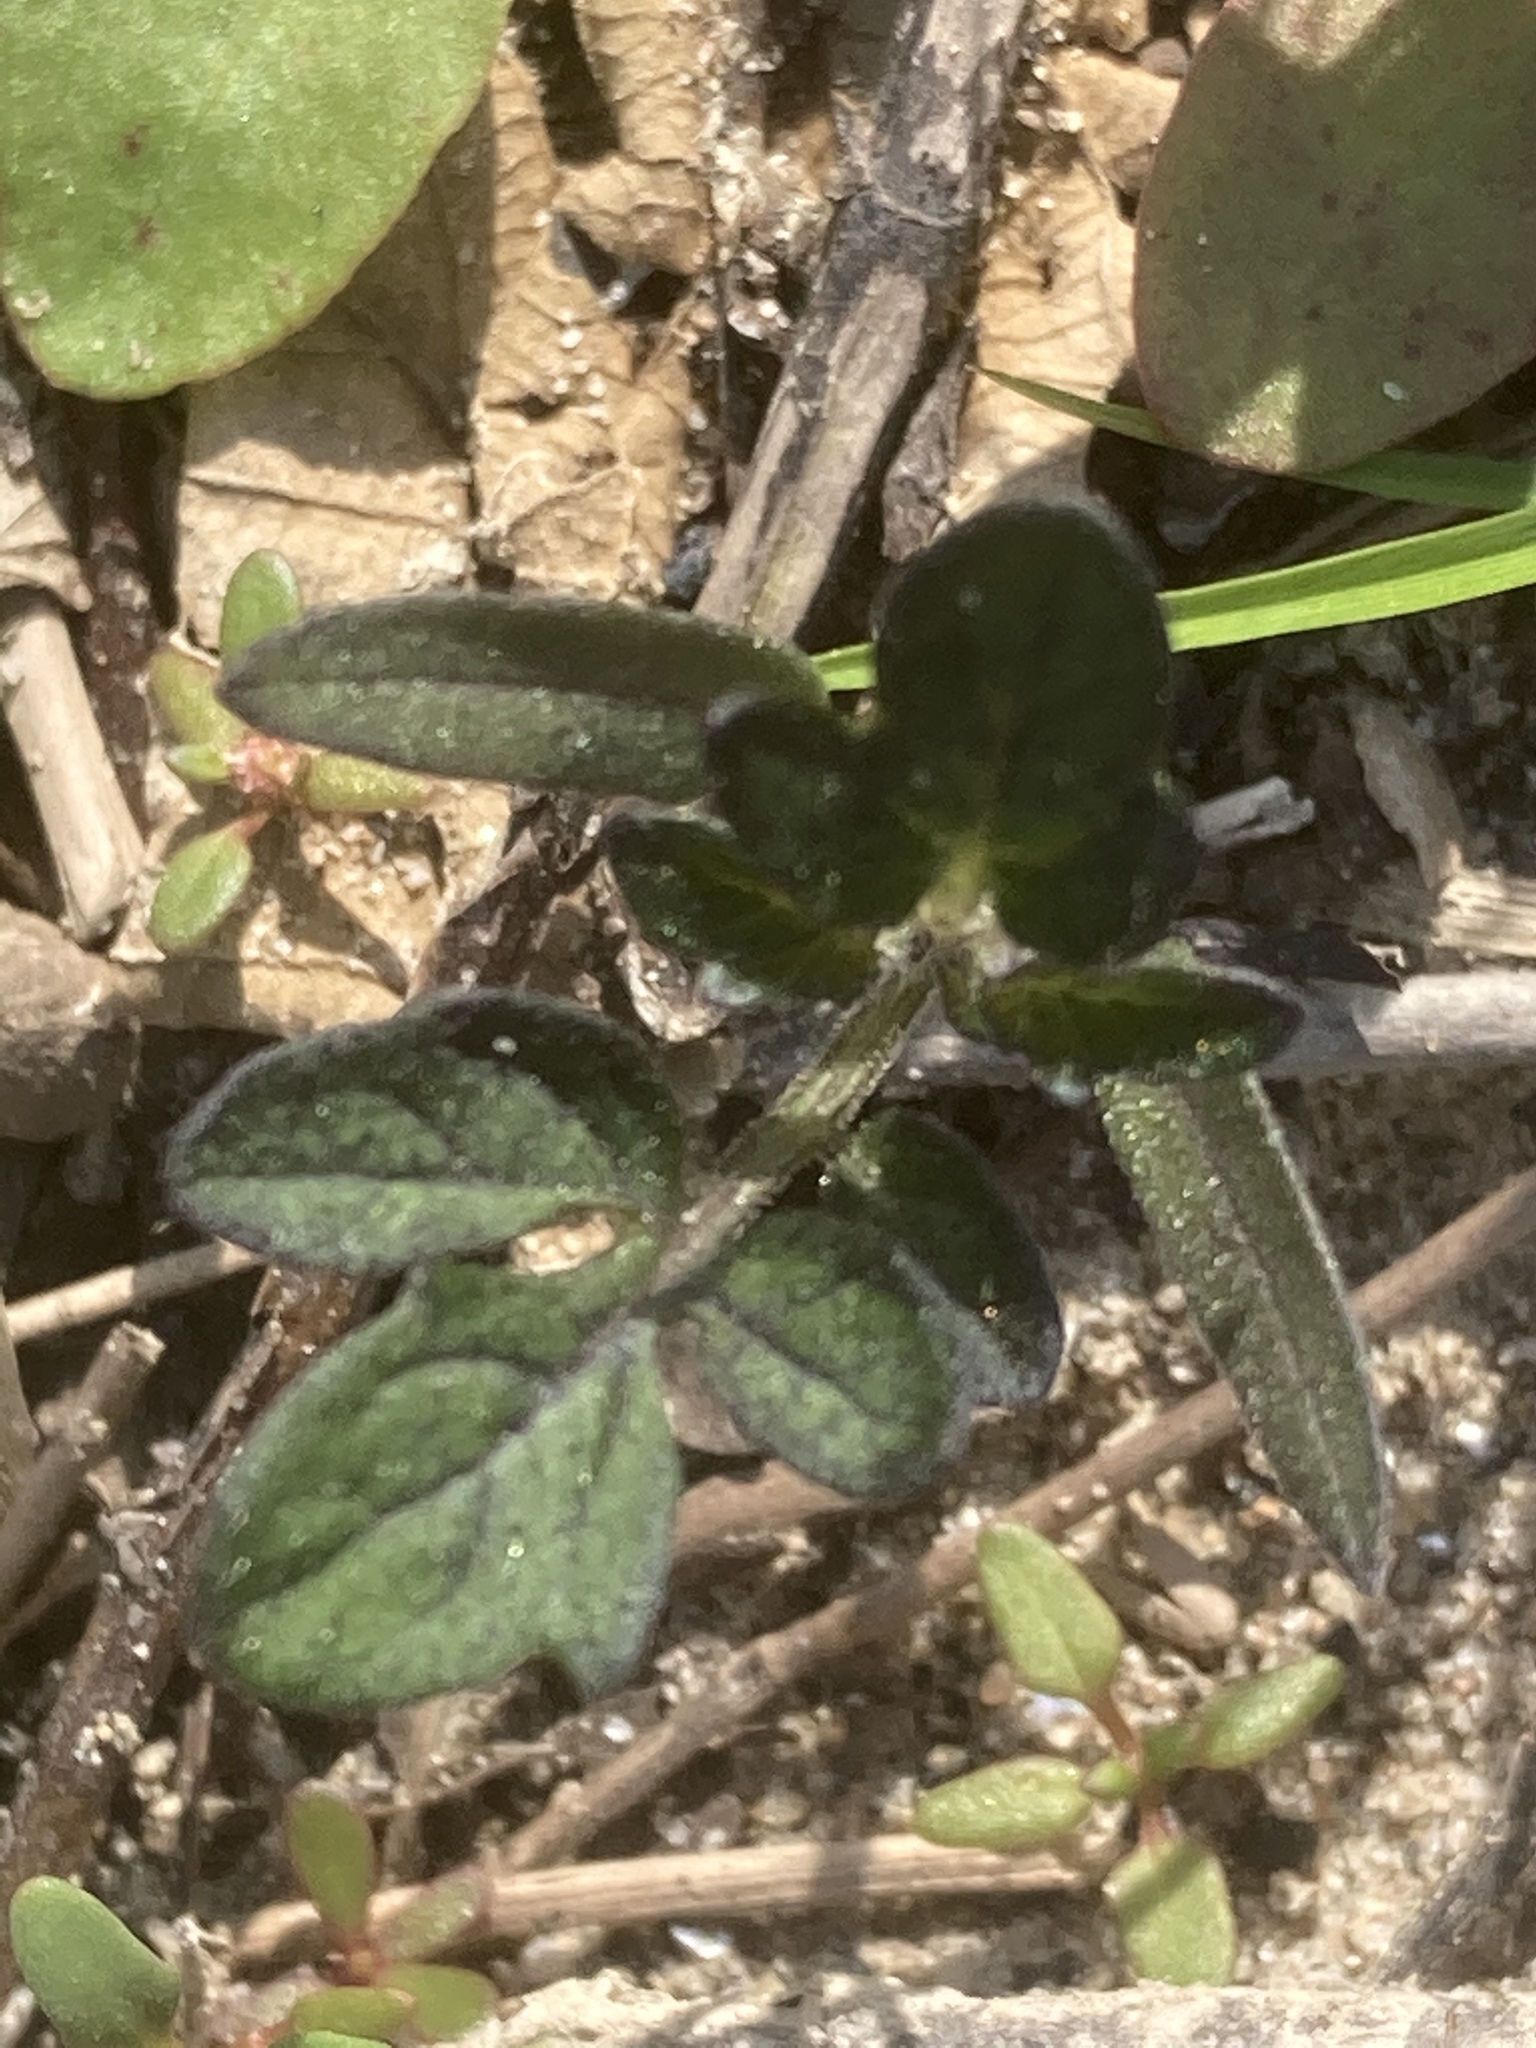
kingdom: Plantae
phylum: Tracheophyta
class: Magnoliopsida
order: Solanales
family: Solanaceae
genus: Solanum
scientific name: Solanum lycopersicum
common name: Garden tomato
